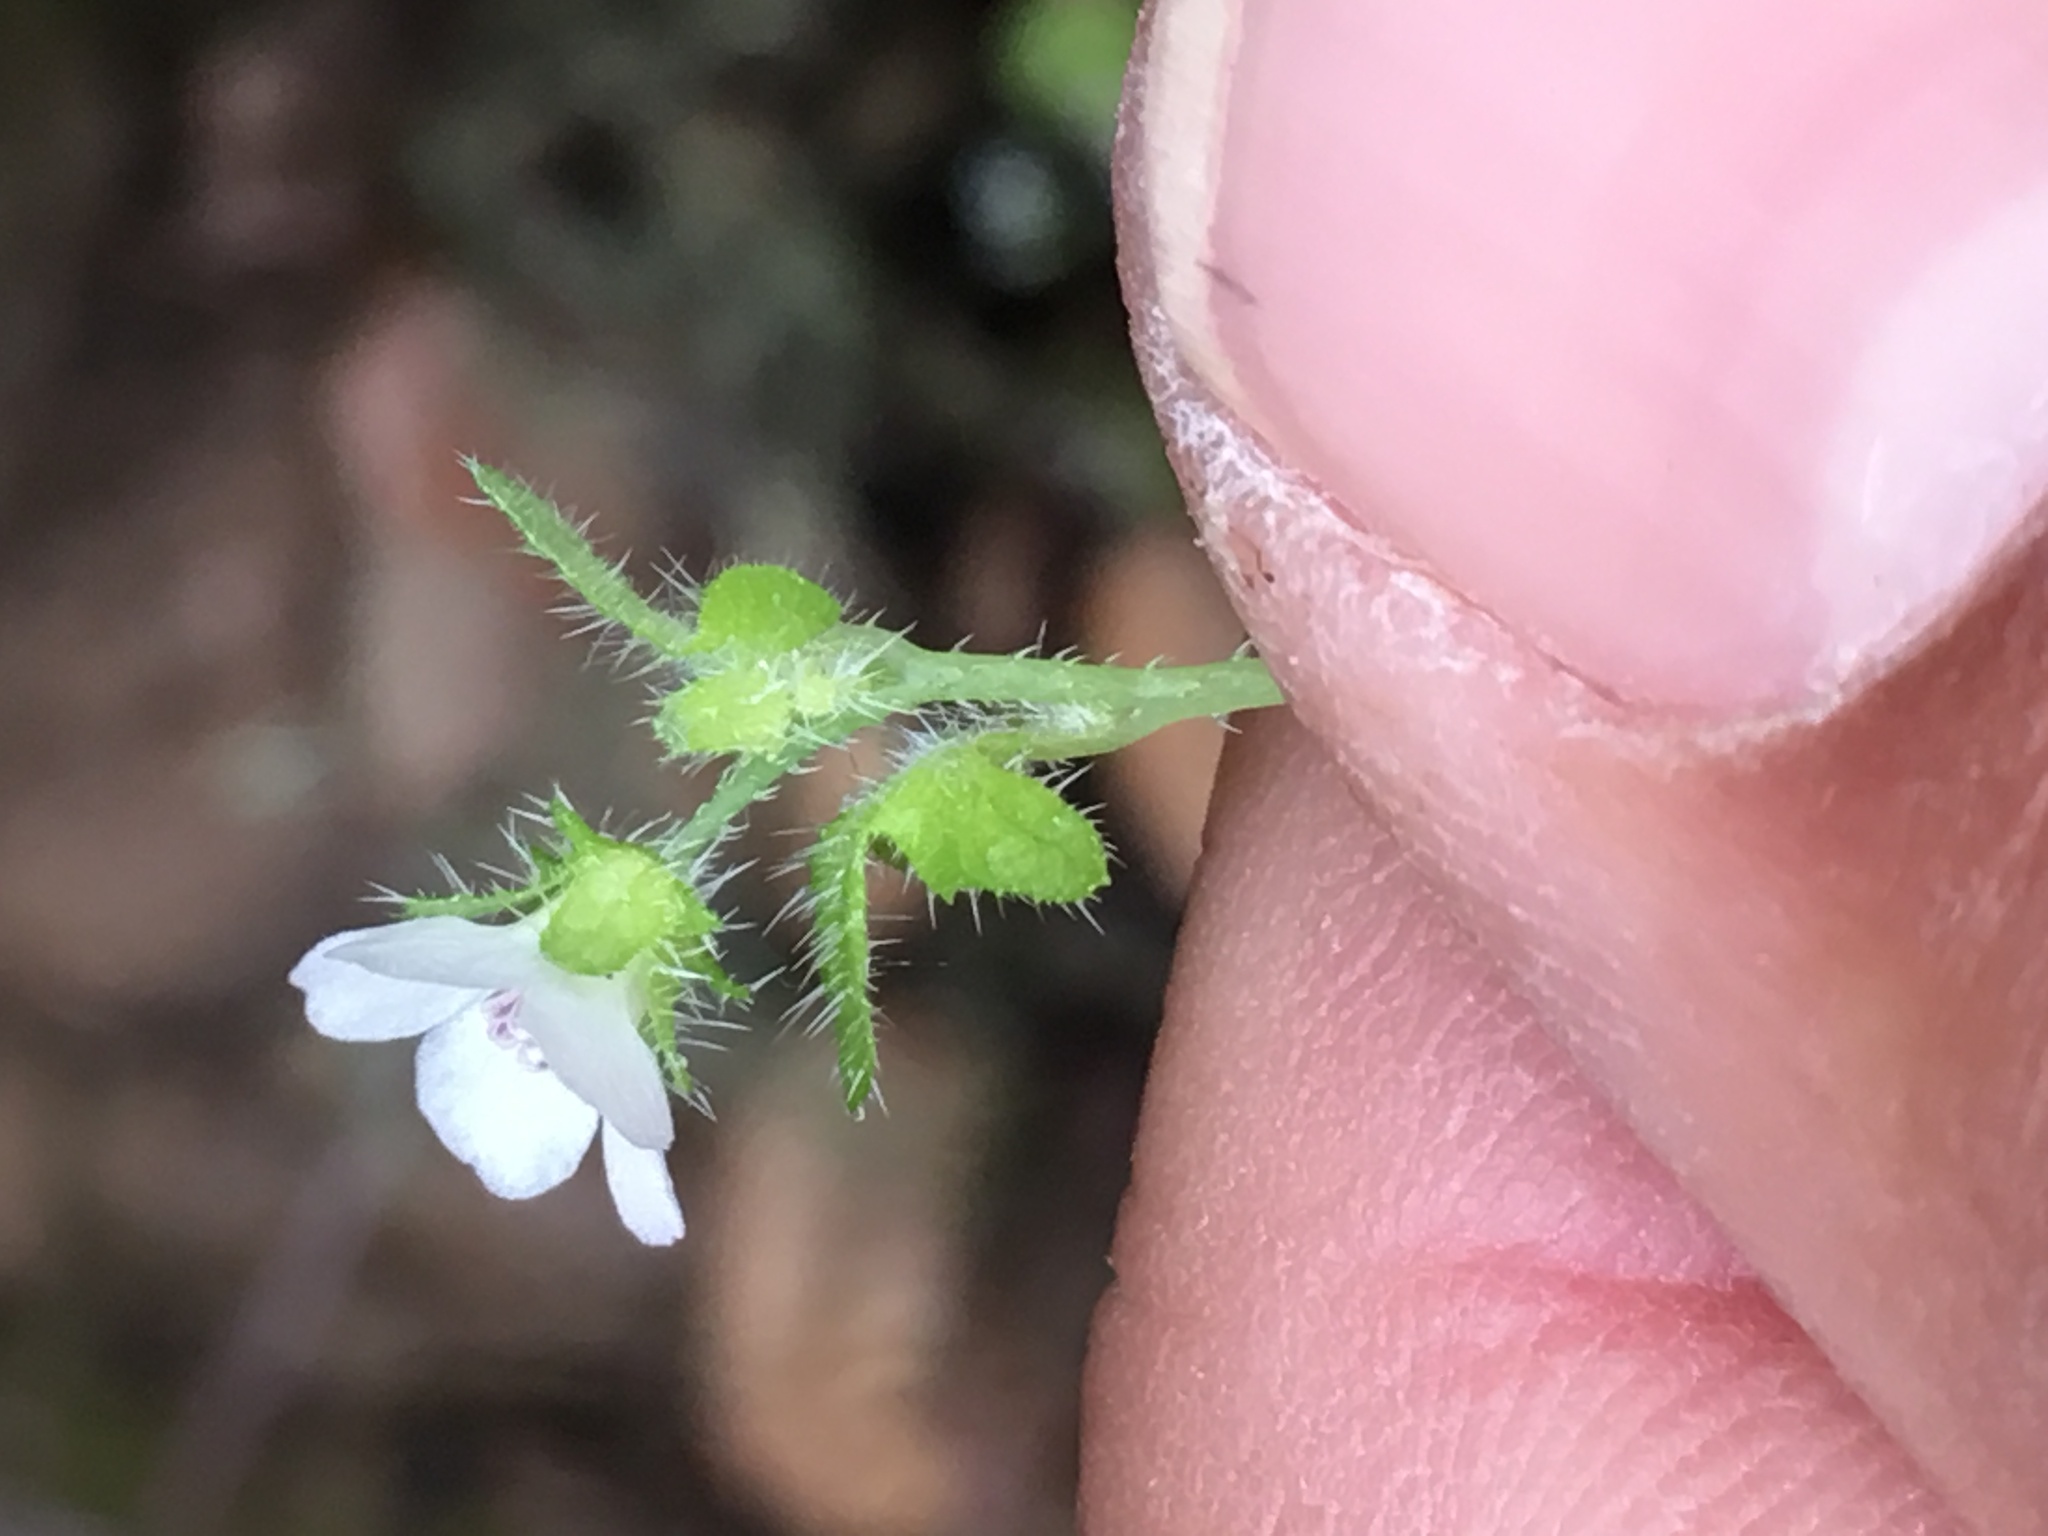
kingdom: Plantae
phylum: Tracheophyta
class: Magnoliopsida
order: Boraginales
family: Hydrophyllaceae
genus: Pholistoma
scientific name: Pholistoma racemosum
